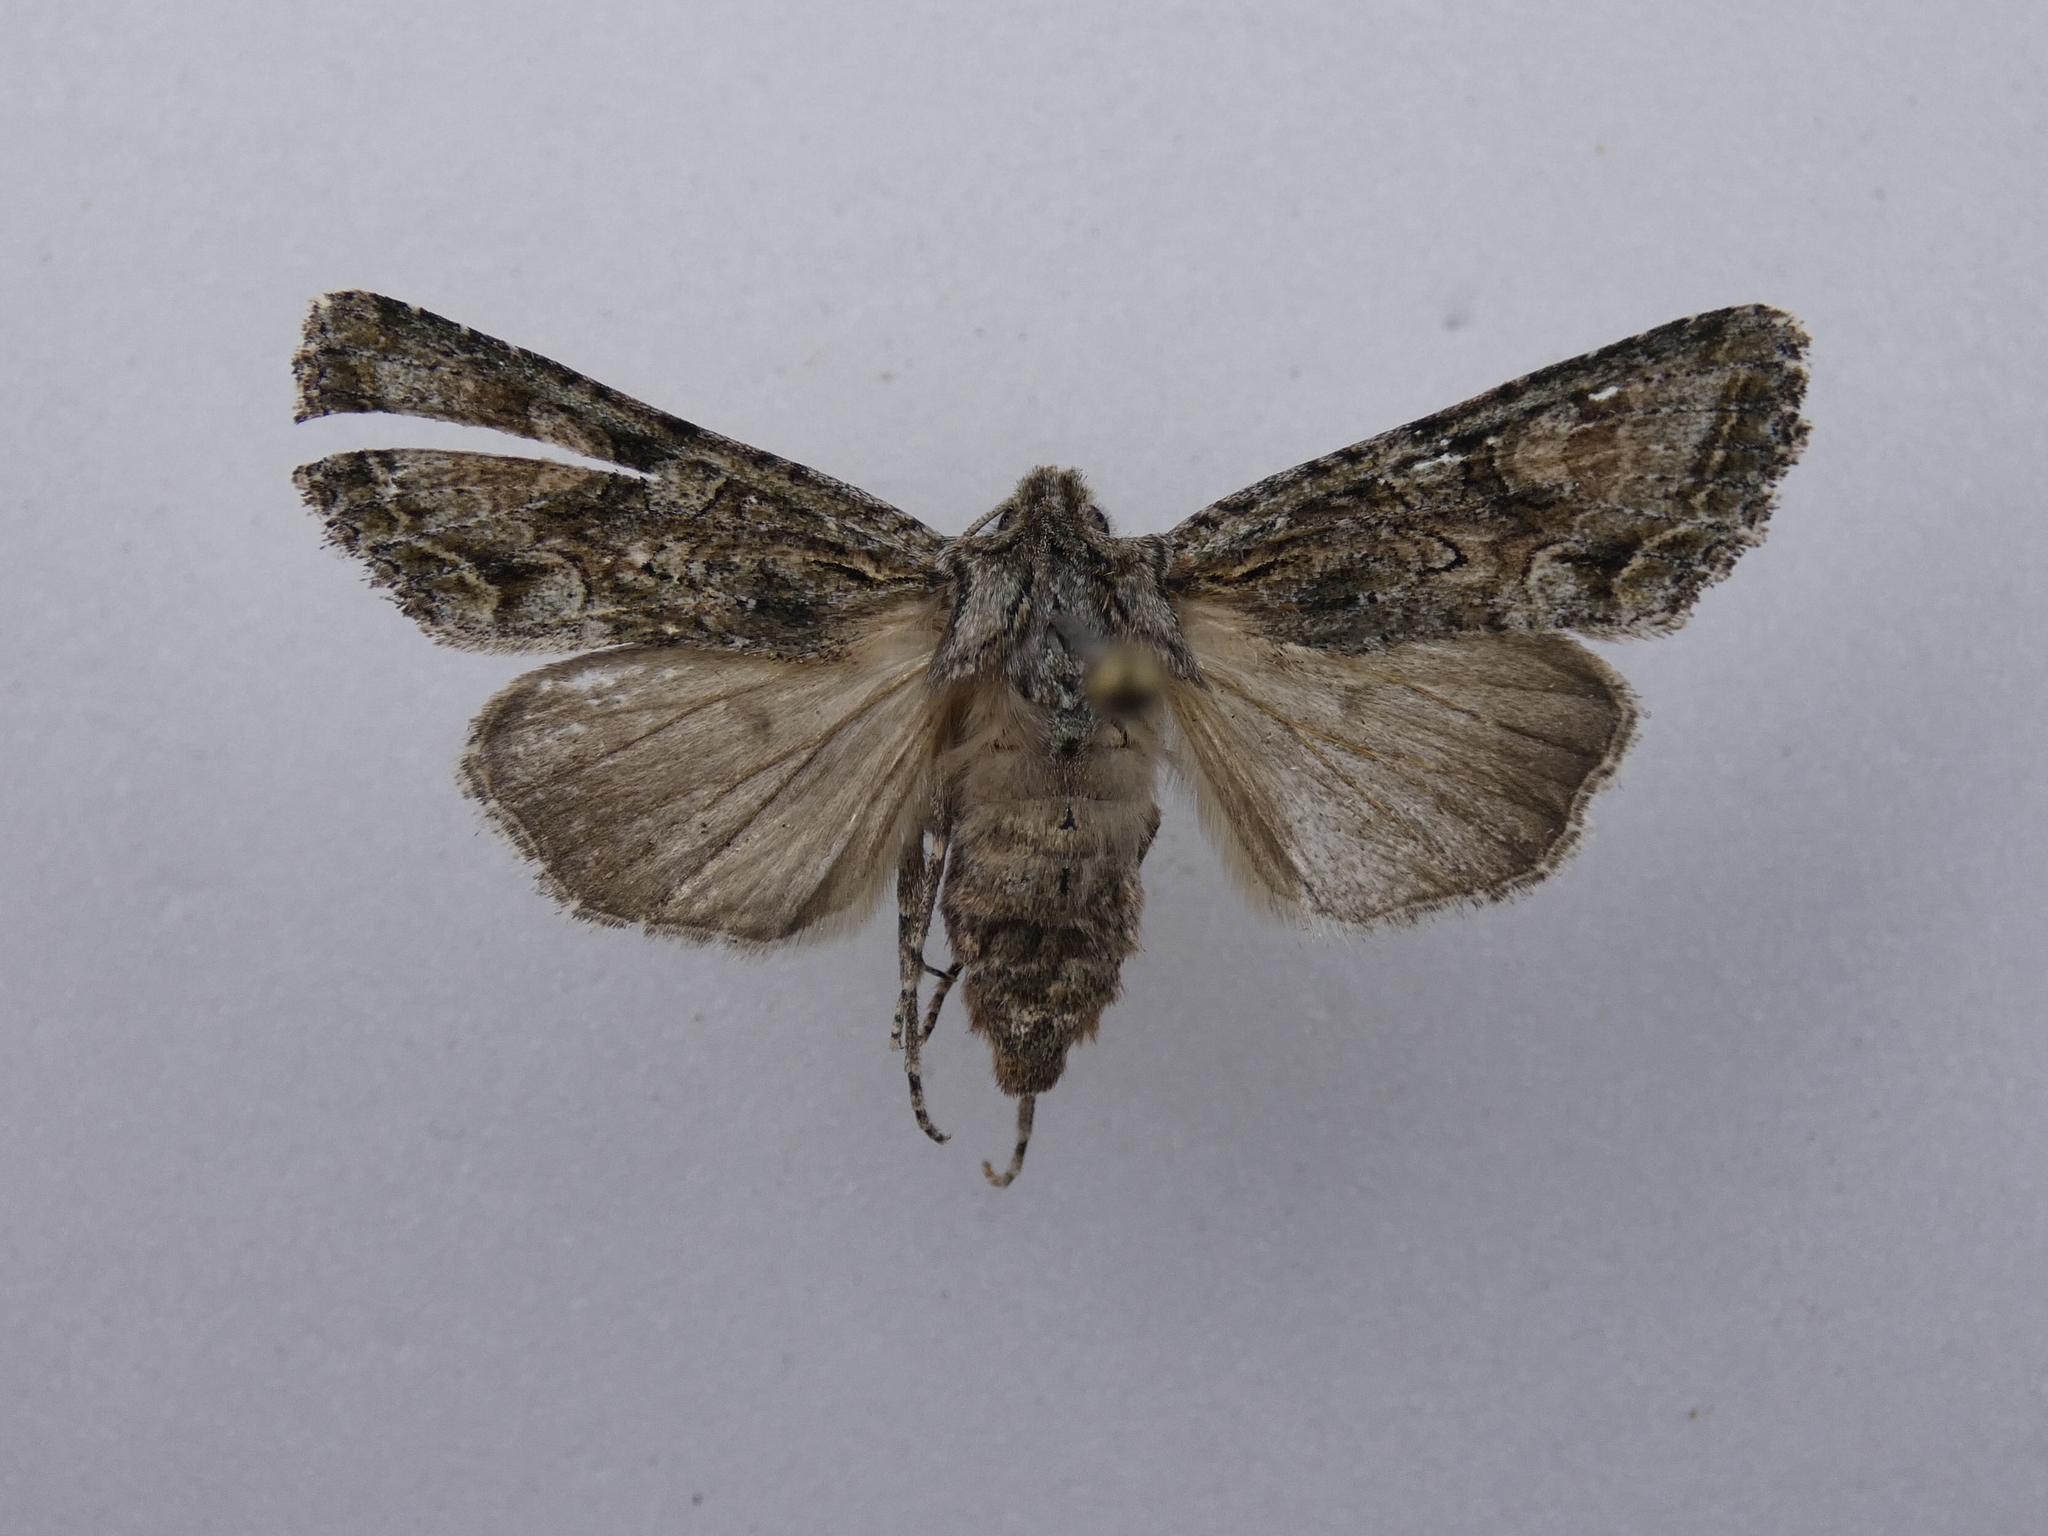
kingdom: Animalia
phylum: Arthropoda
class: Insecta
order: Lepidoptera
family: Noctuidae
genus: Ichneutica
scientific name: Ichneutica mutans
